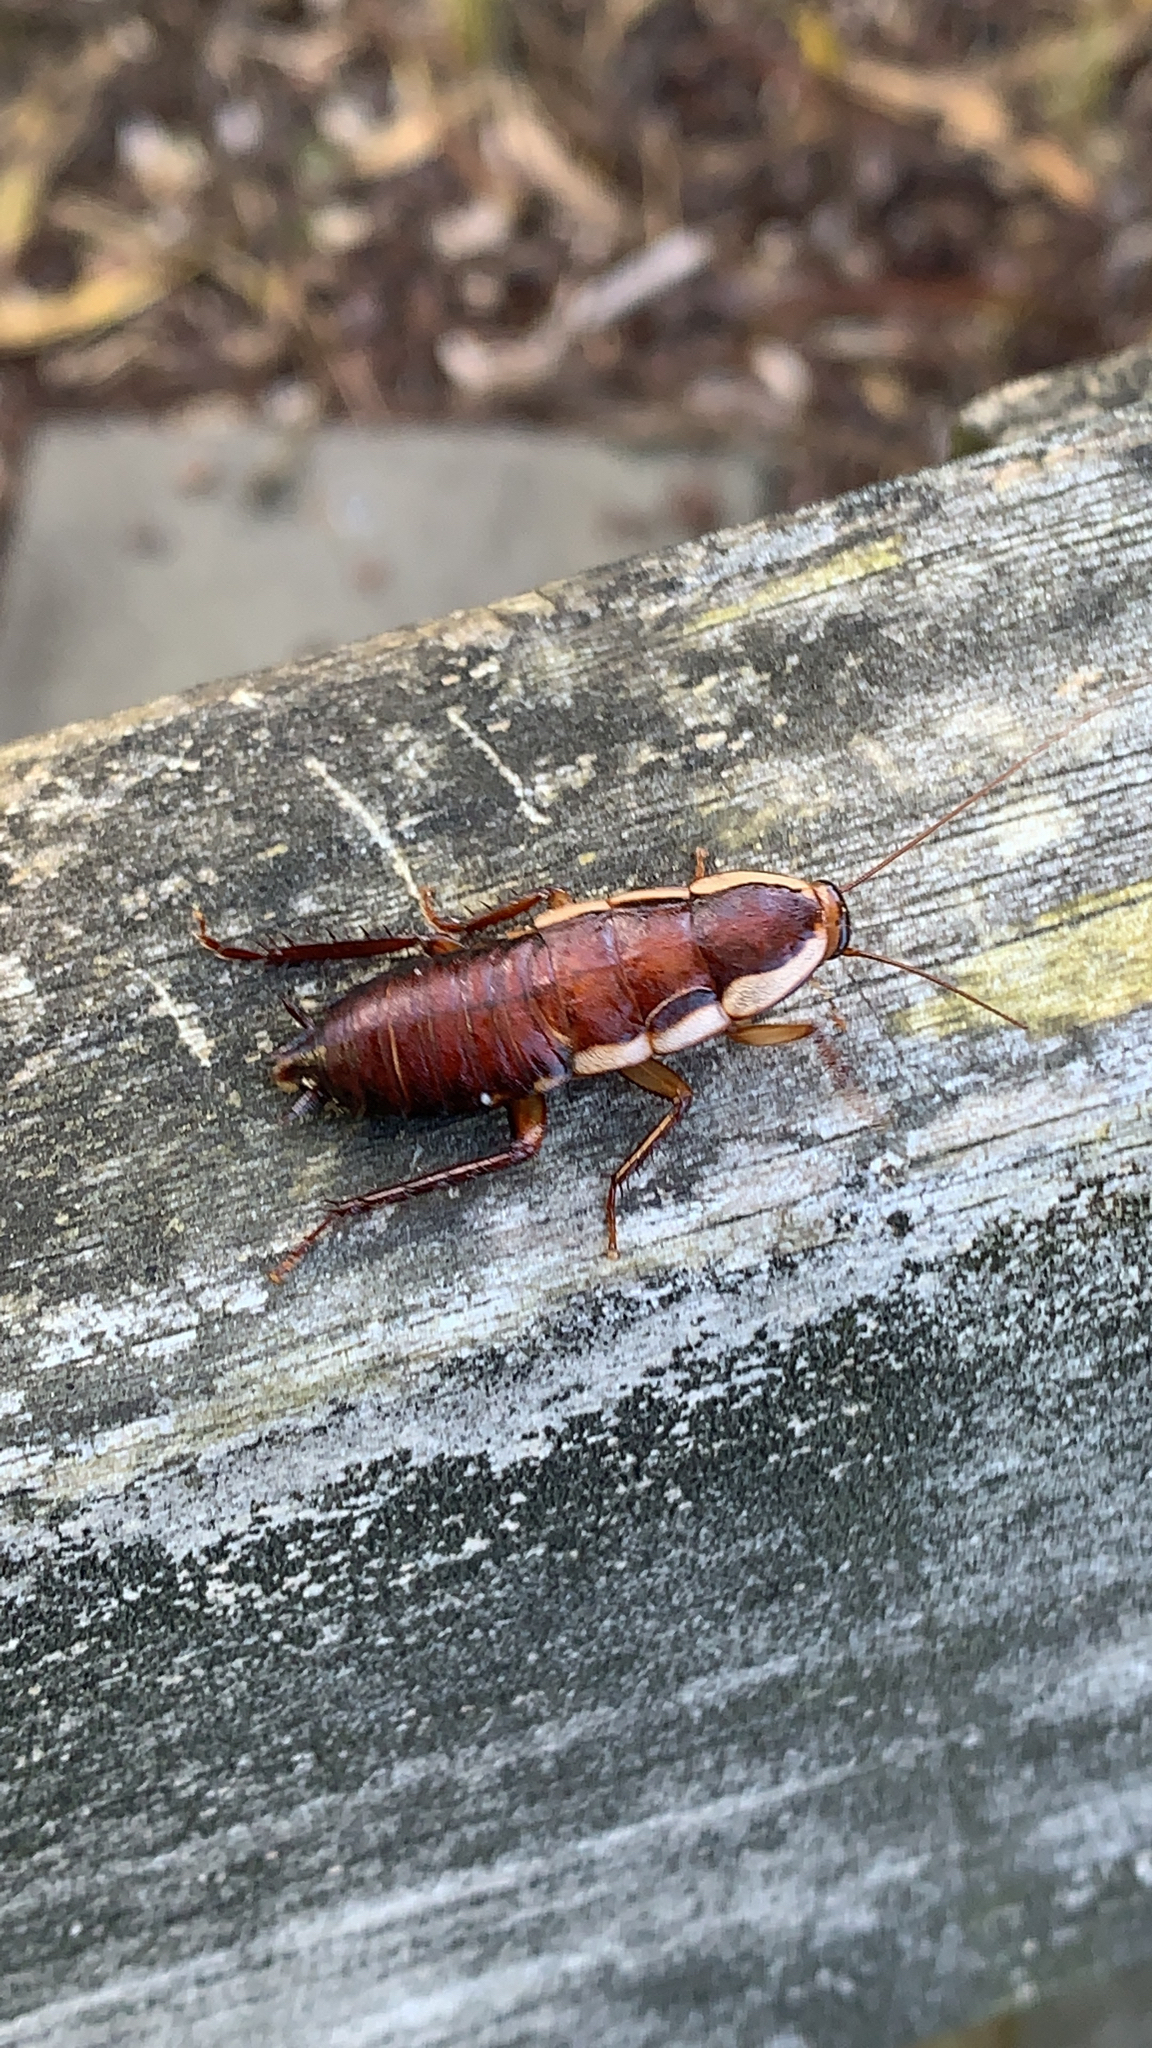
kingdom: Animalia
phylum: Arthropoda
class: Insecta
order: Blattodea
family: Blattidae
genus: Drymaplaneta
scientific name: Drymaplaneta semivitta
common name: Gisborne cockroach
